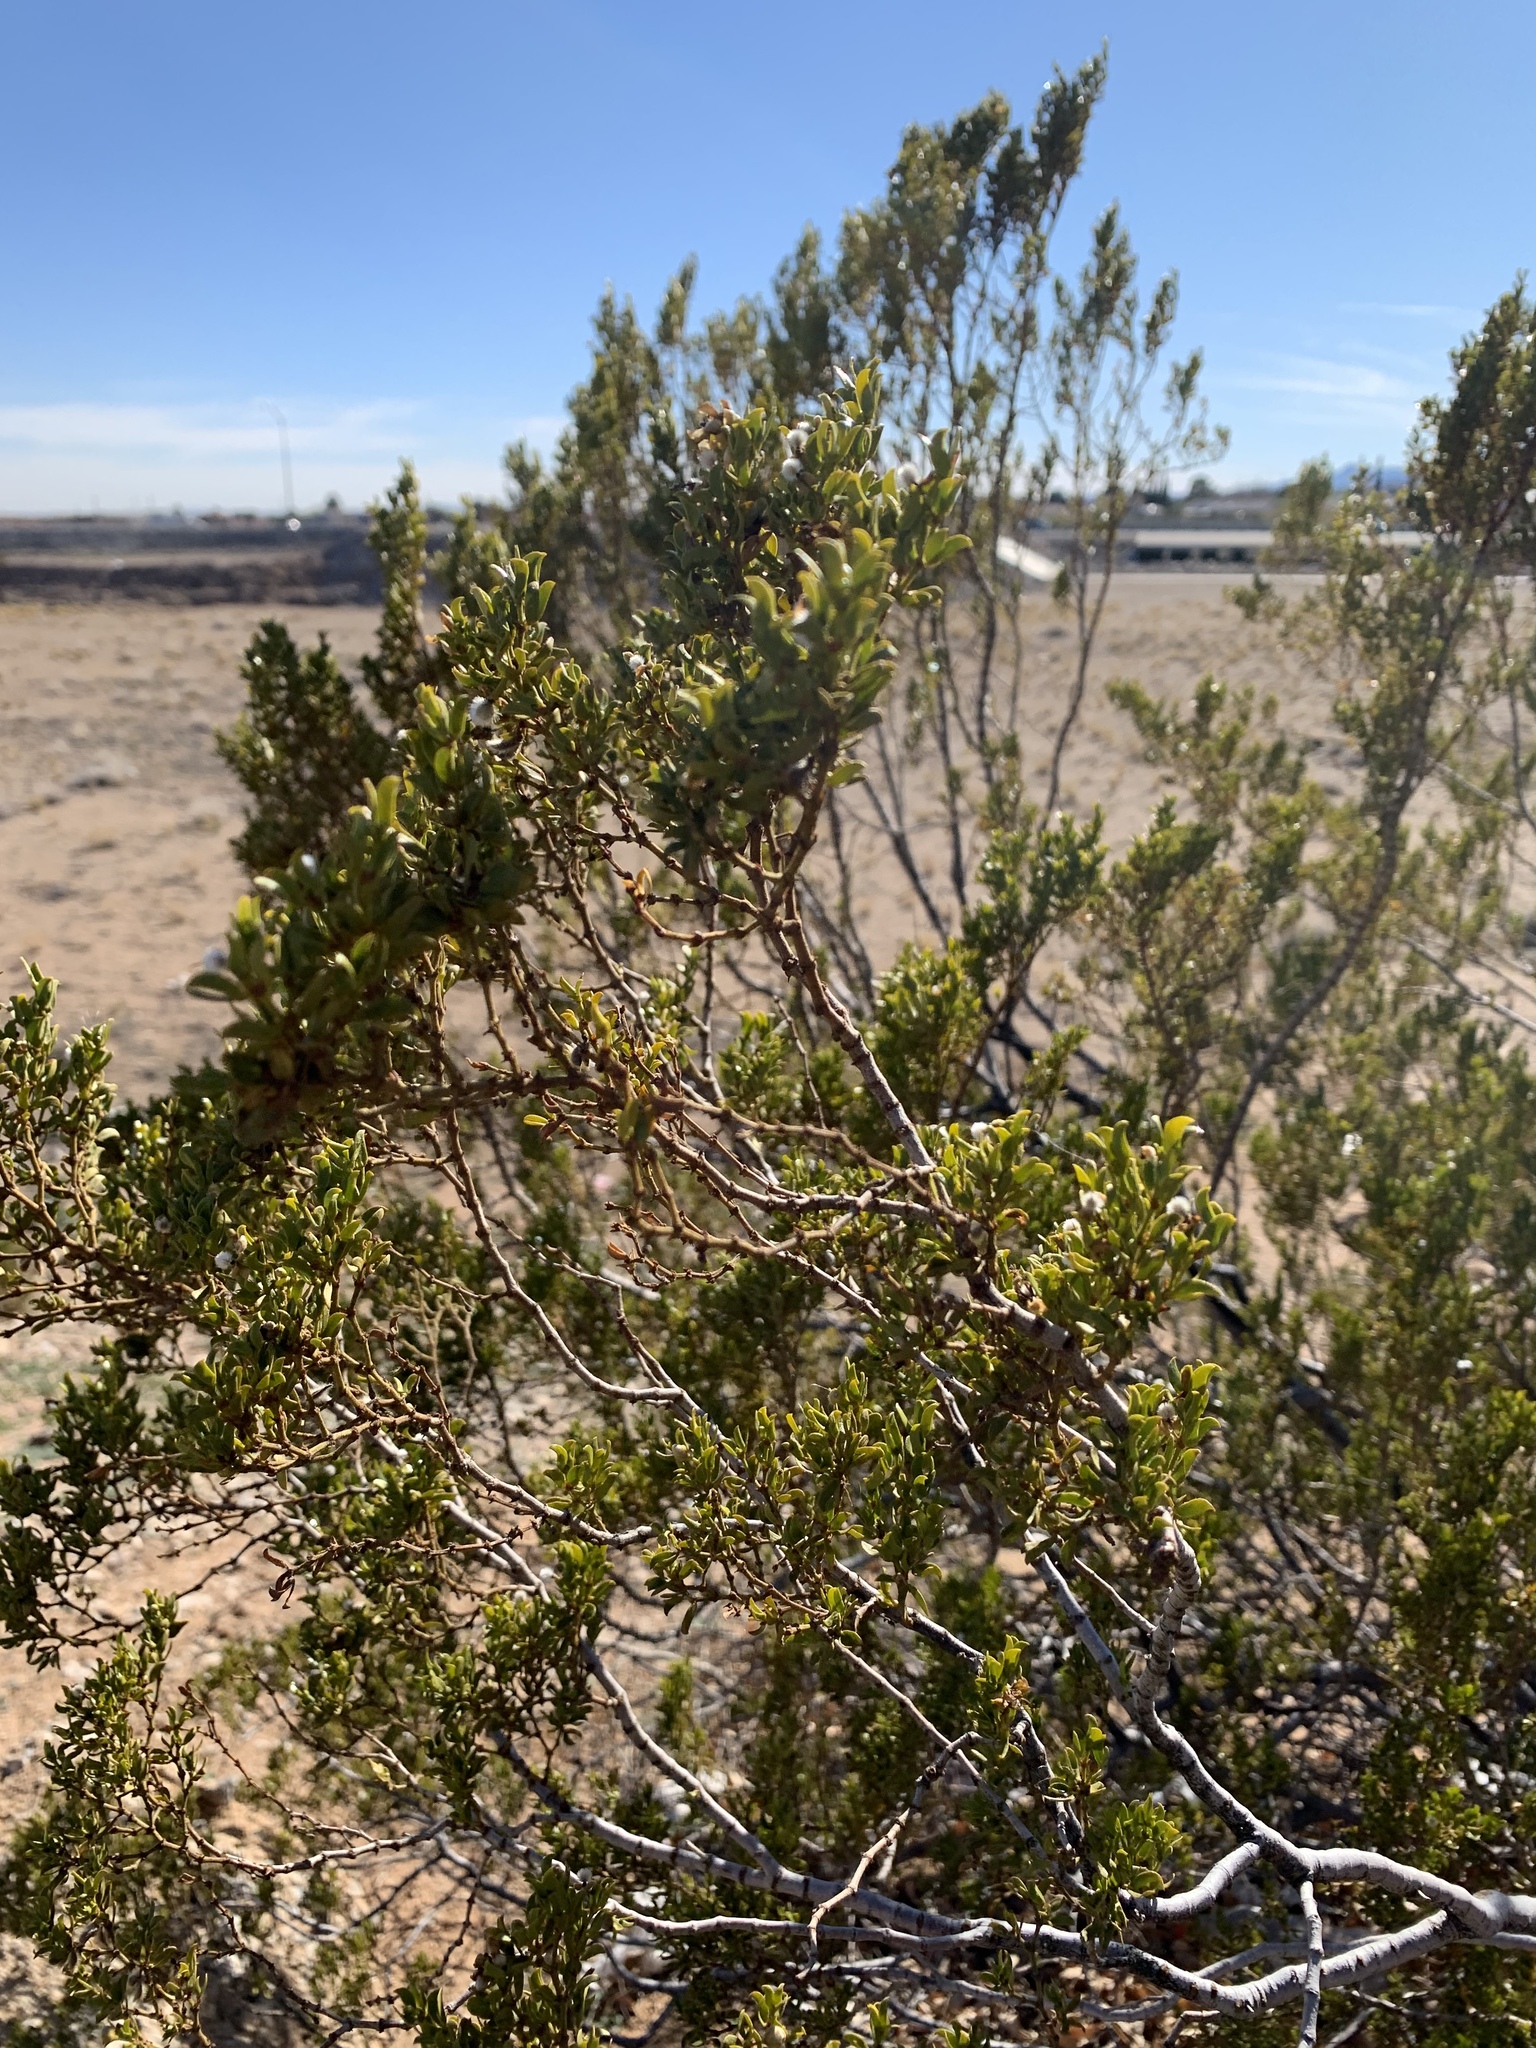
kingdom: Plantae
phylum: Tracheophyta
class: Magnoliopsida
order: Zygophyllales
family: Zygophyllaceae
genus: Larrea
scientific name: Larrea tridentata
